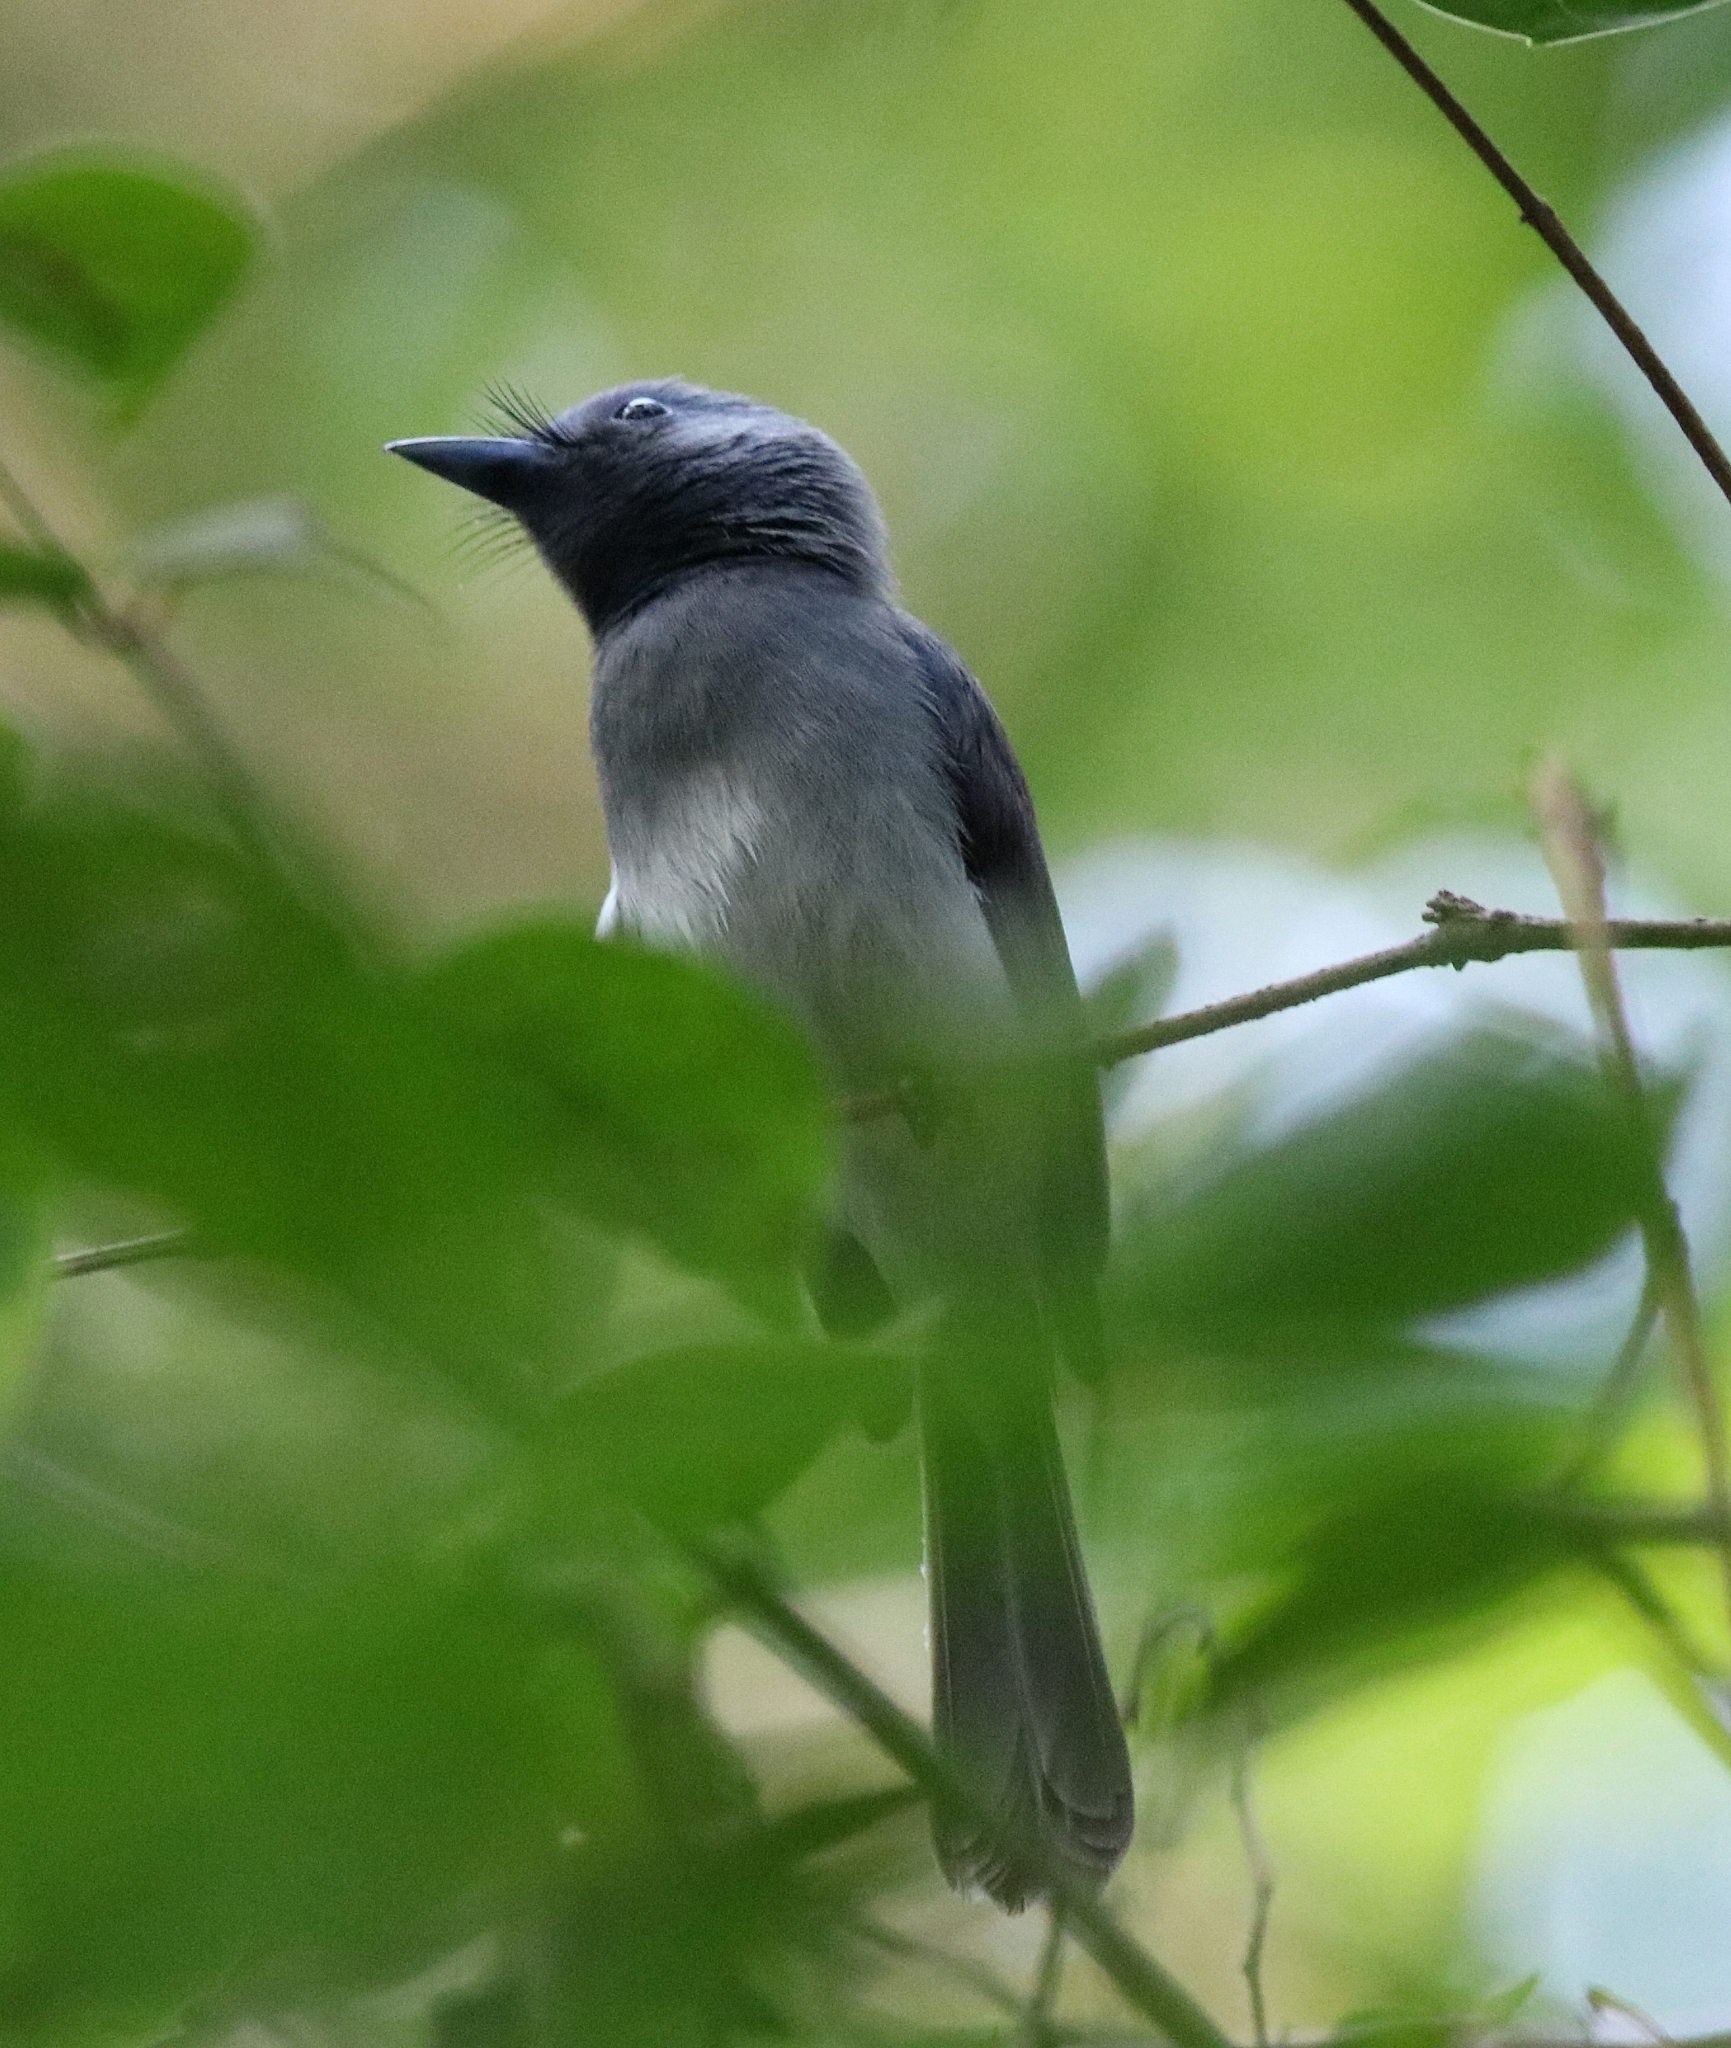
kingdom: Animalia
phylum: Chordata
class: Aves
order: Passeriformes
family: Monarchidae
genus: Hypothymis
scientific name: Hypothymis azurea
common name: Black-naped monarch
